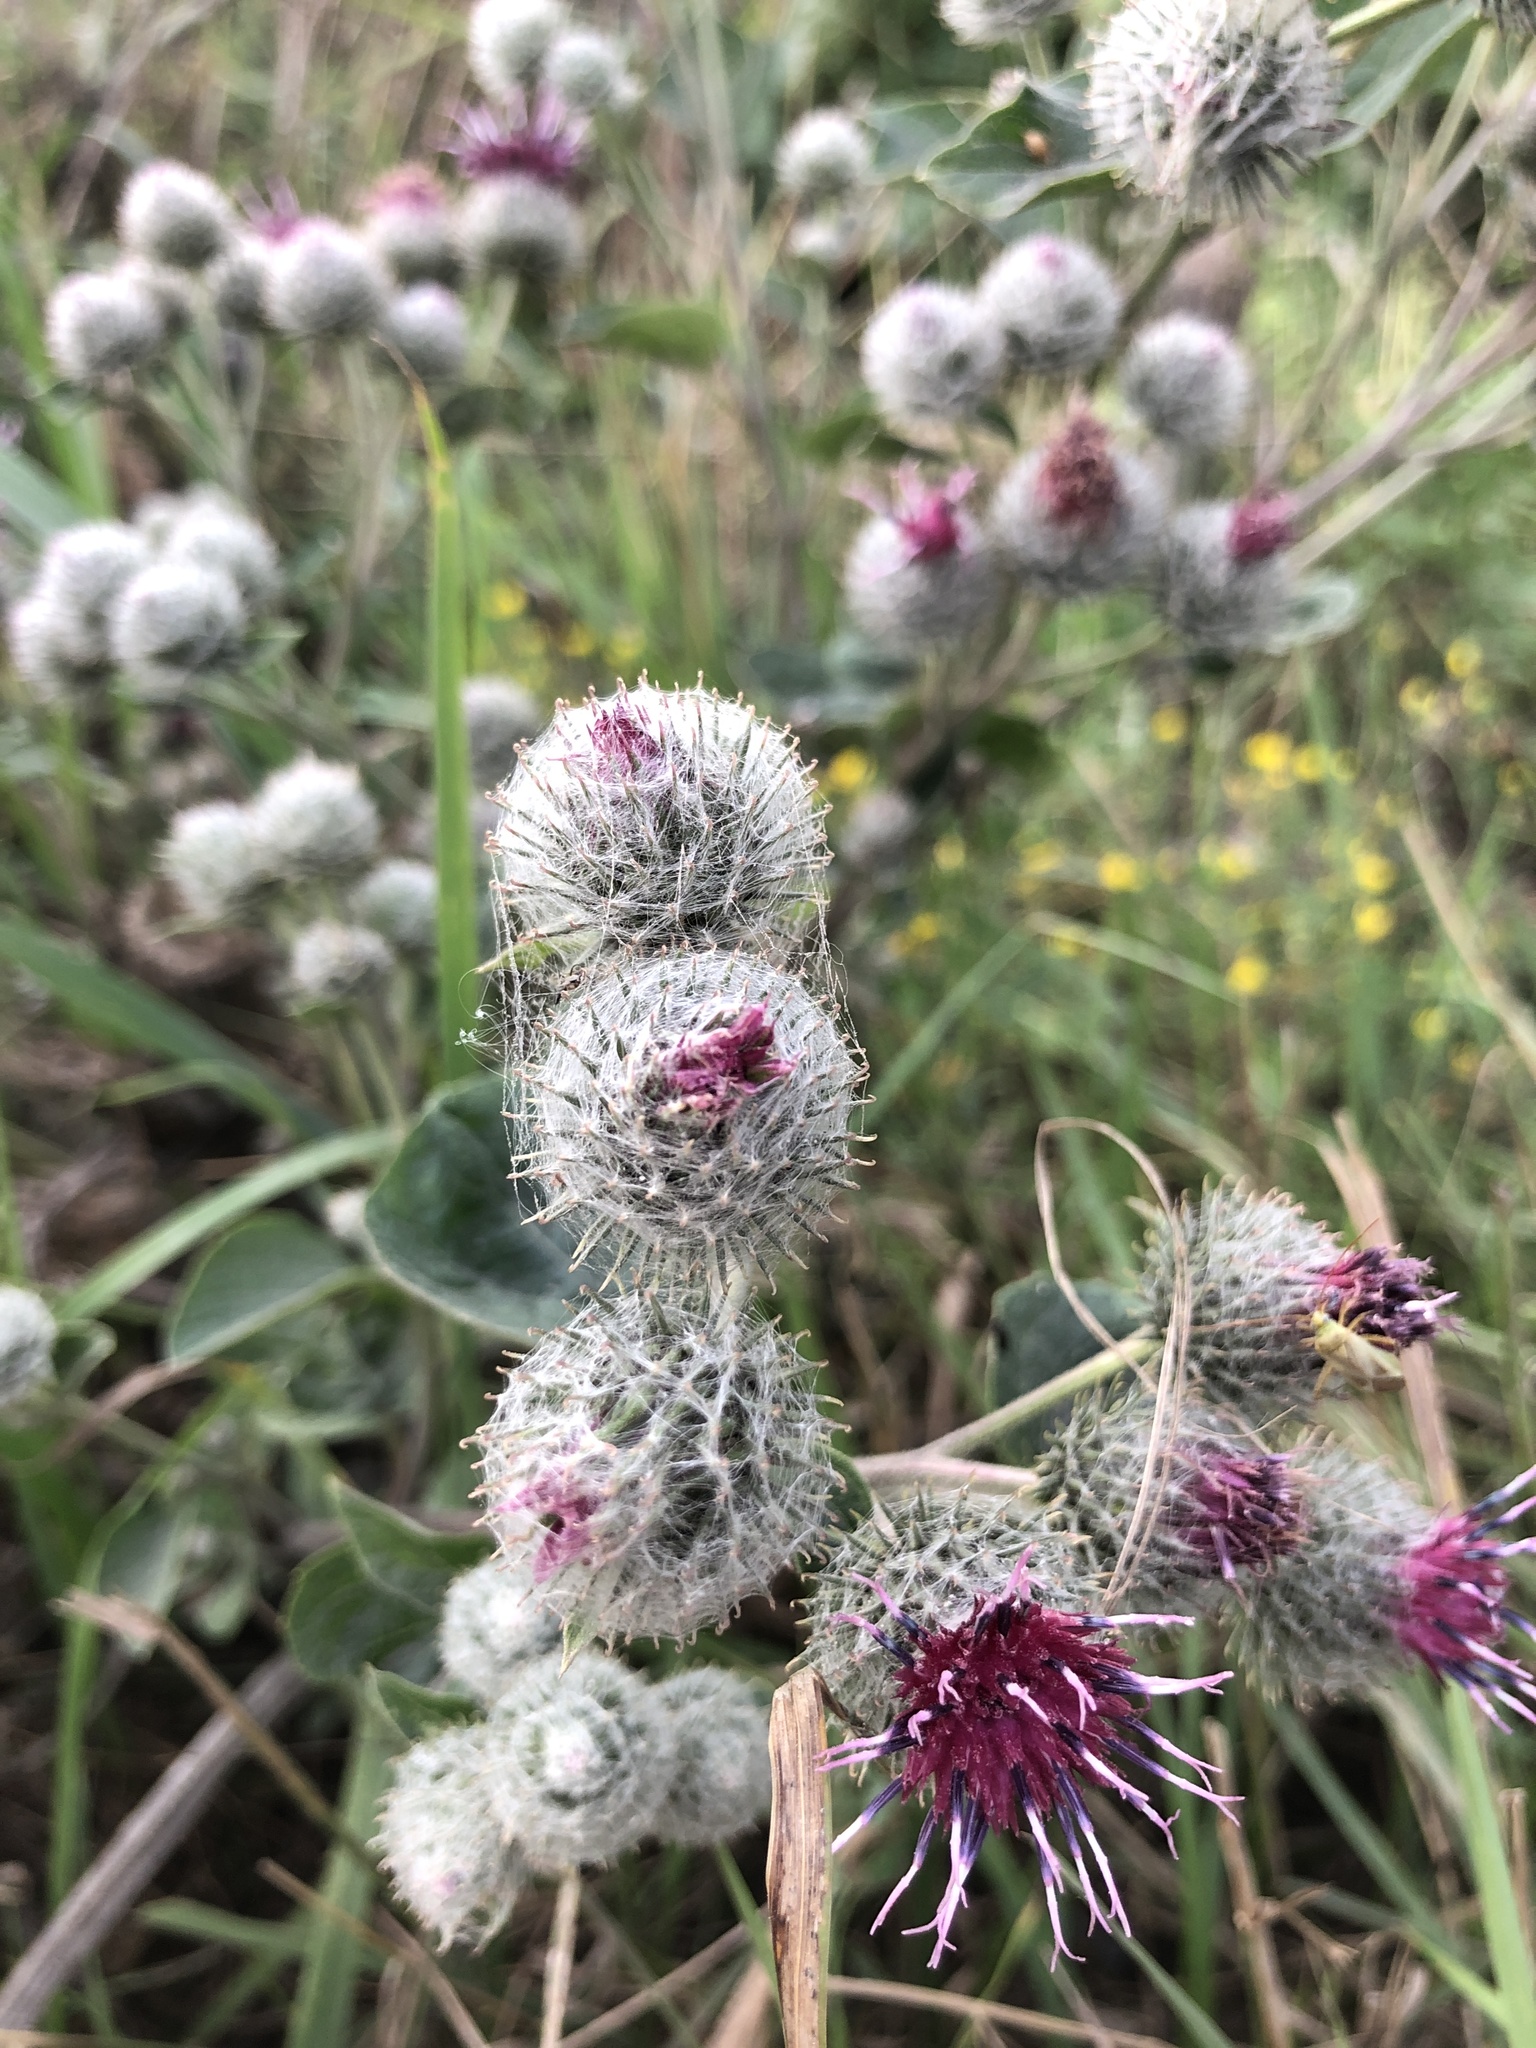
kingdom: Plantae
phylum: Tracheophyta
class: Magnoliopsida
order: Asterales
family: Asteraceae
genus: Arctium
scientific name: Arctium tomentosum
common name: Woolly burdock
